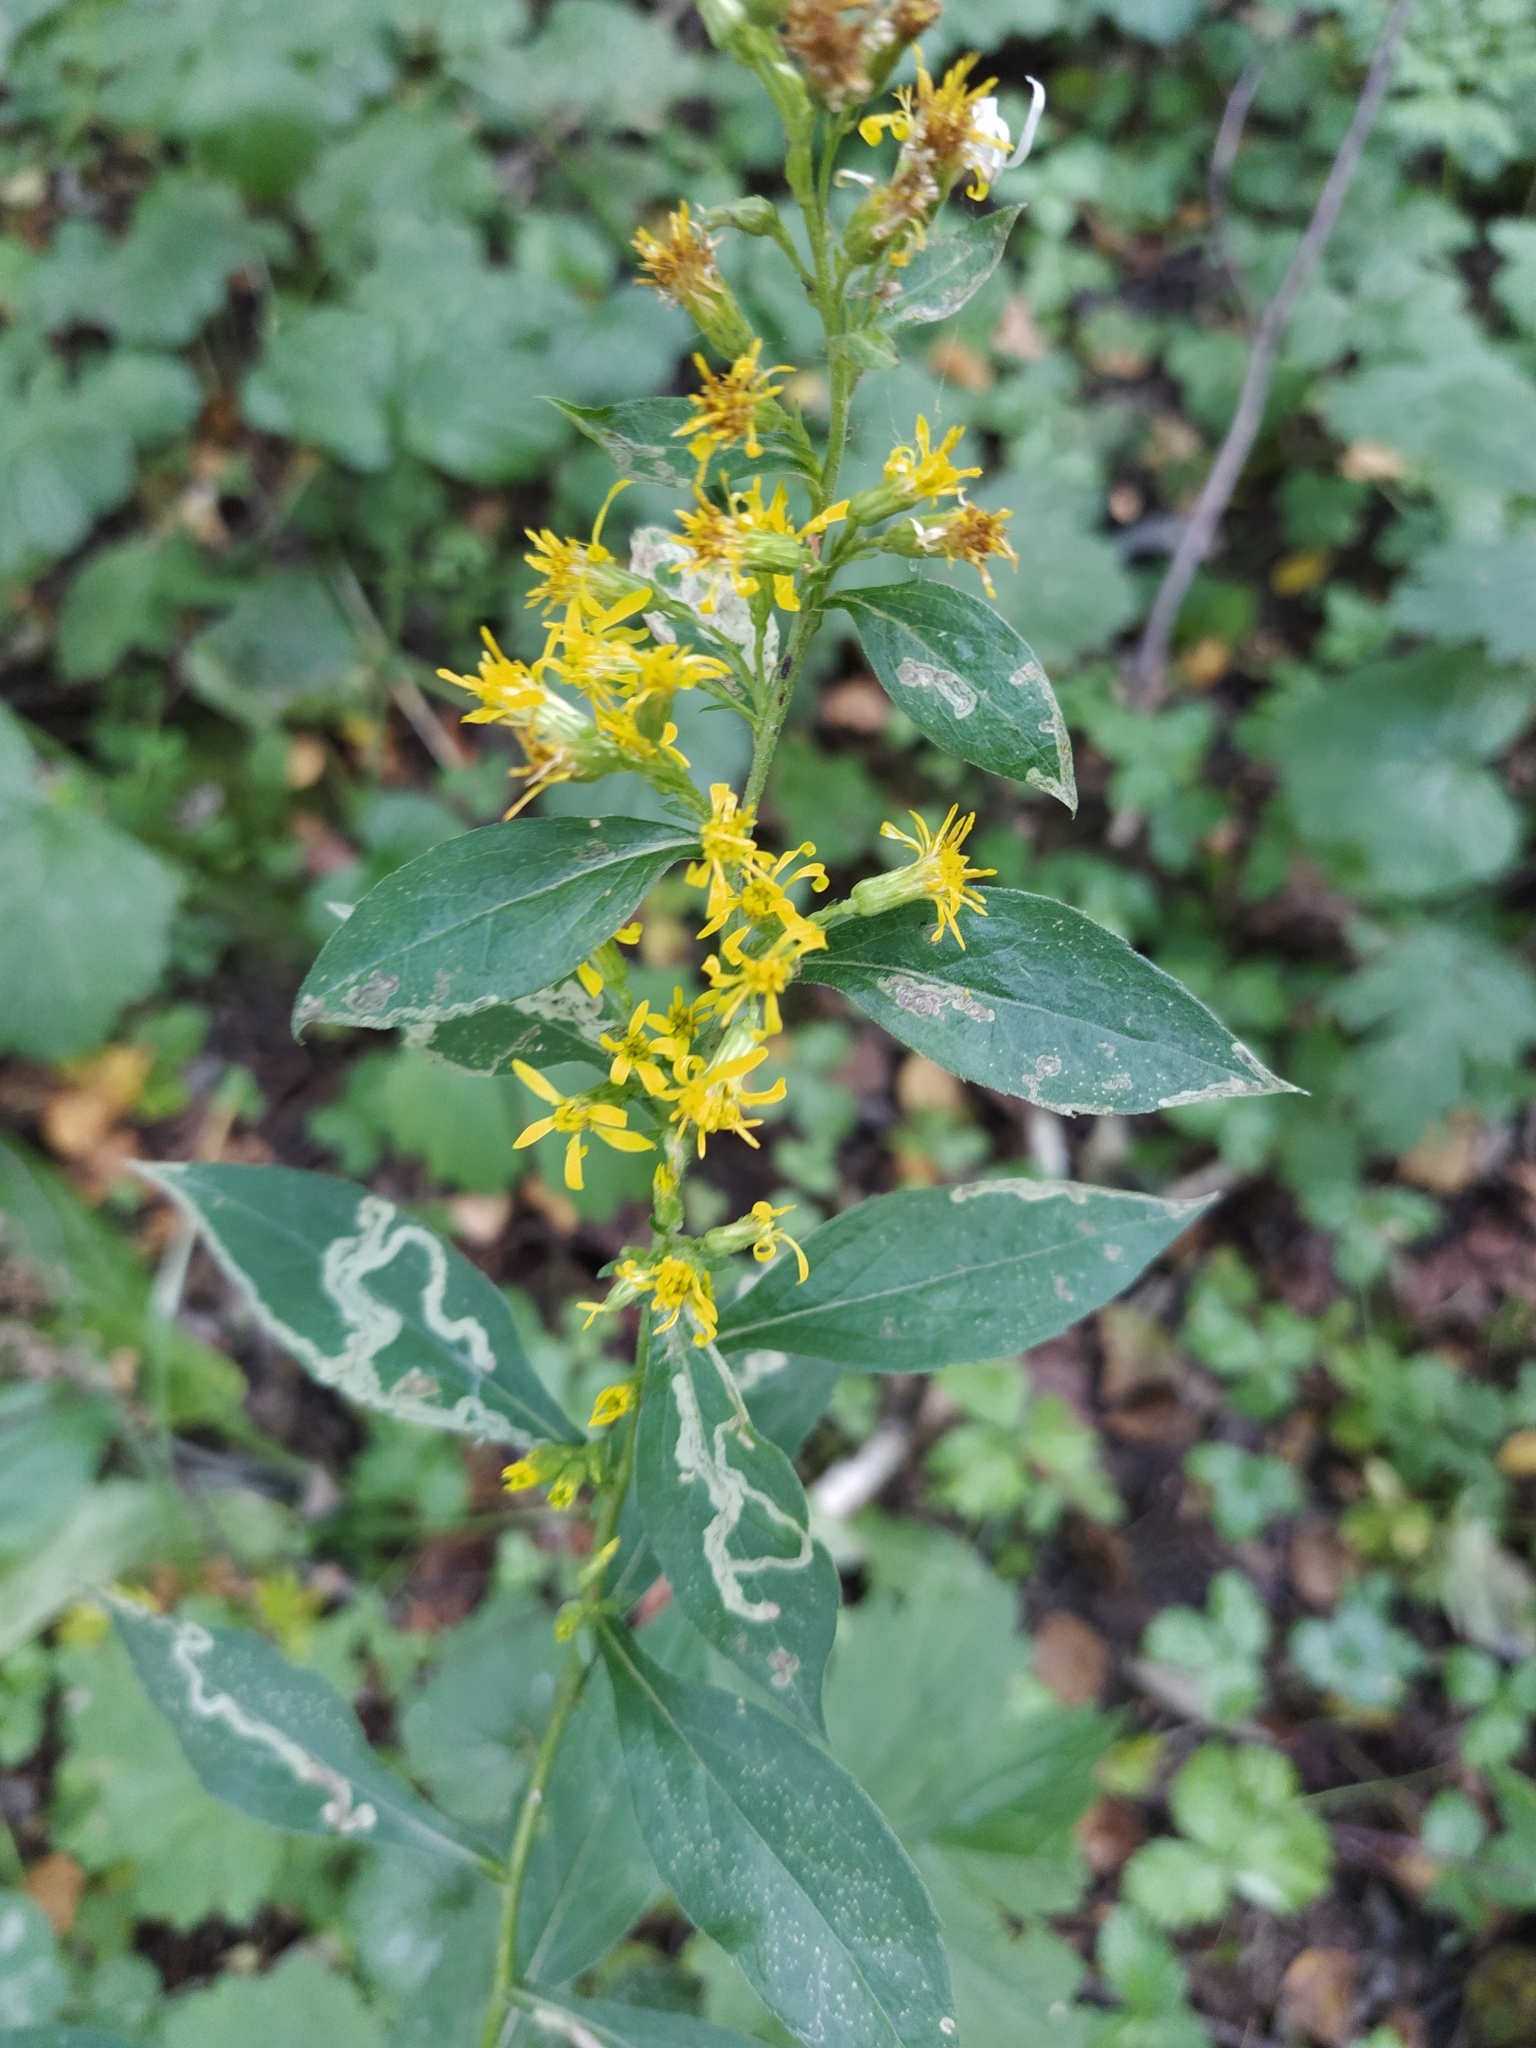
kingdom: Plantae
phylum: Tracheophyta
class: Magnoliopsida
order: Asterales
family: Asteraceae
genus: Solidago
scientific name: Solidago virgaurea
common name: Goldenrod
